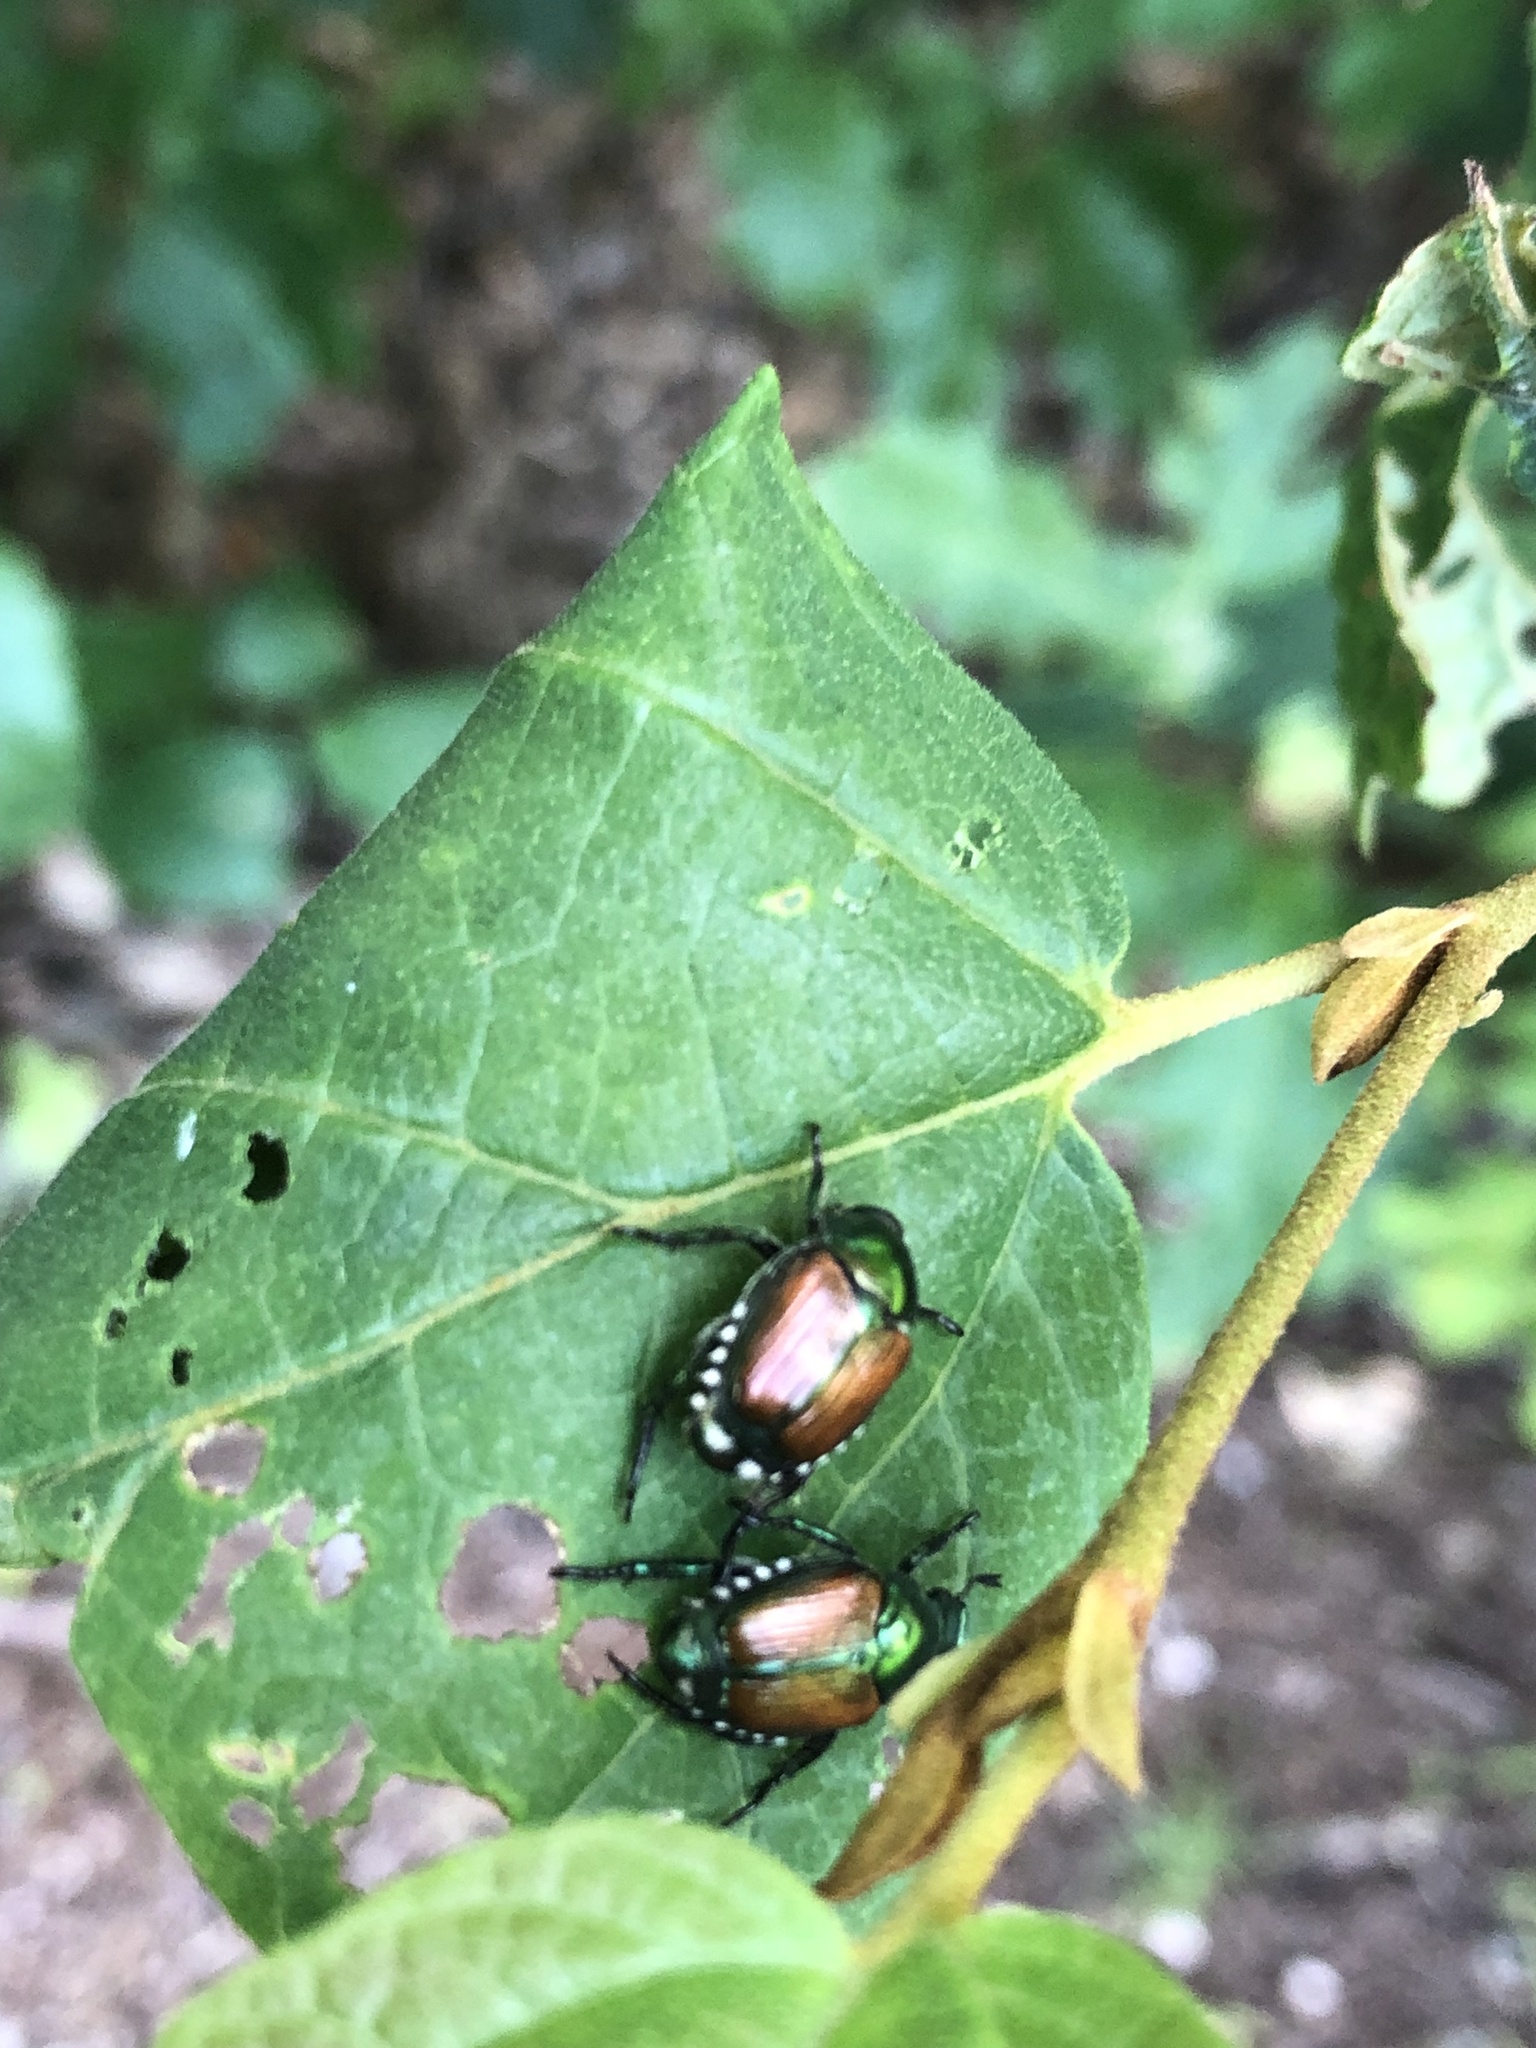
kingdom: Animalia
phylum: Arthropoda
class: Insecta
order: Coleoptera
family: Scarabaeidae
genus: Popillia
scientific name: Popillia japonica
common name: Japanese beetle
